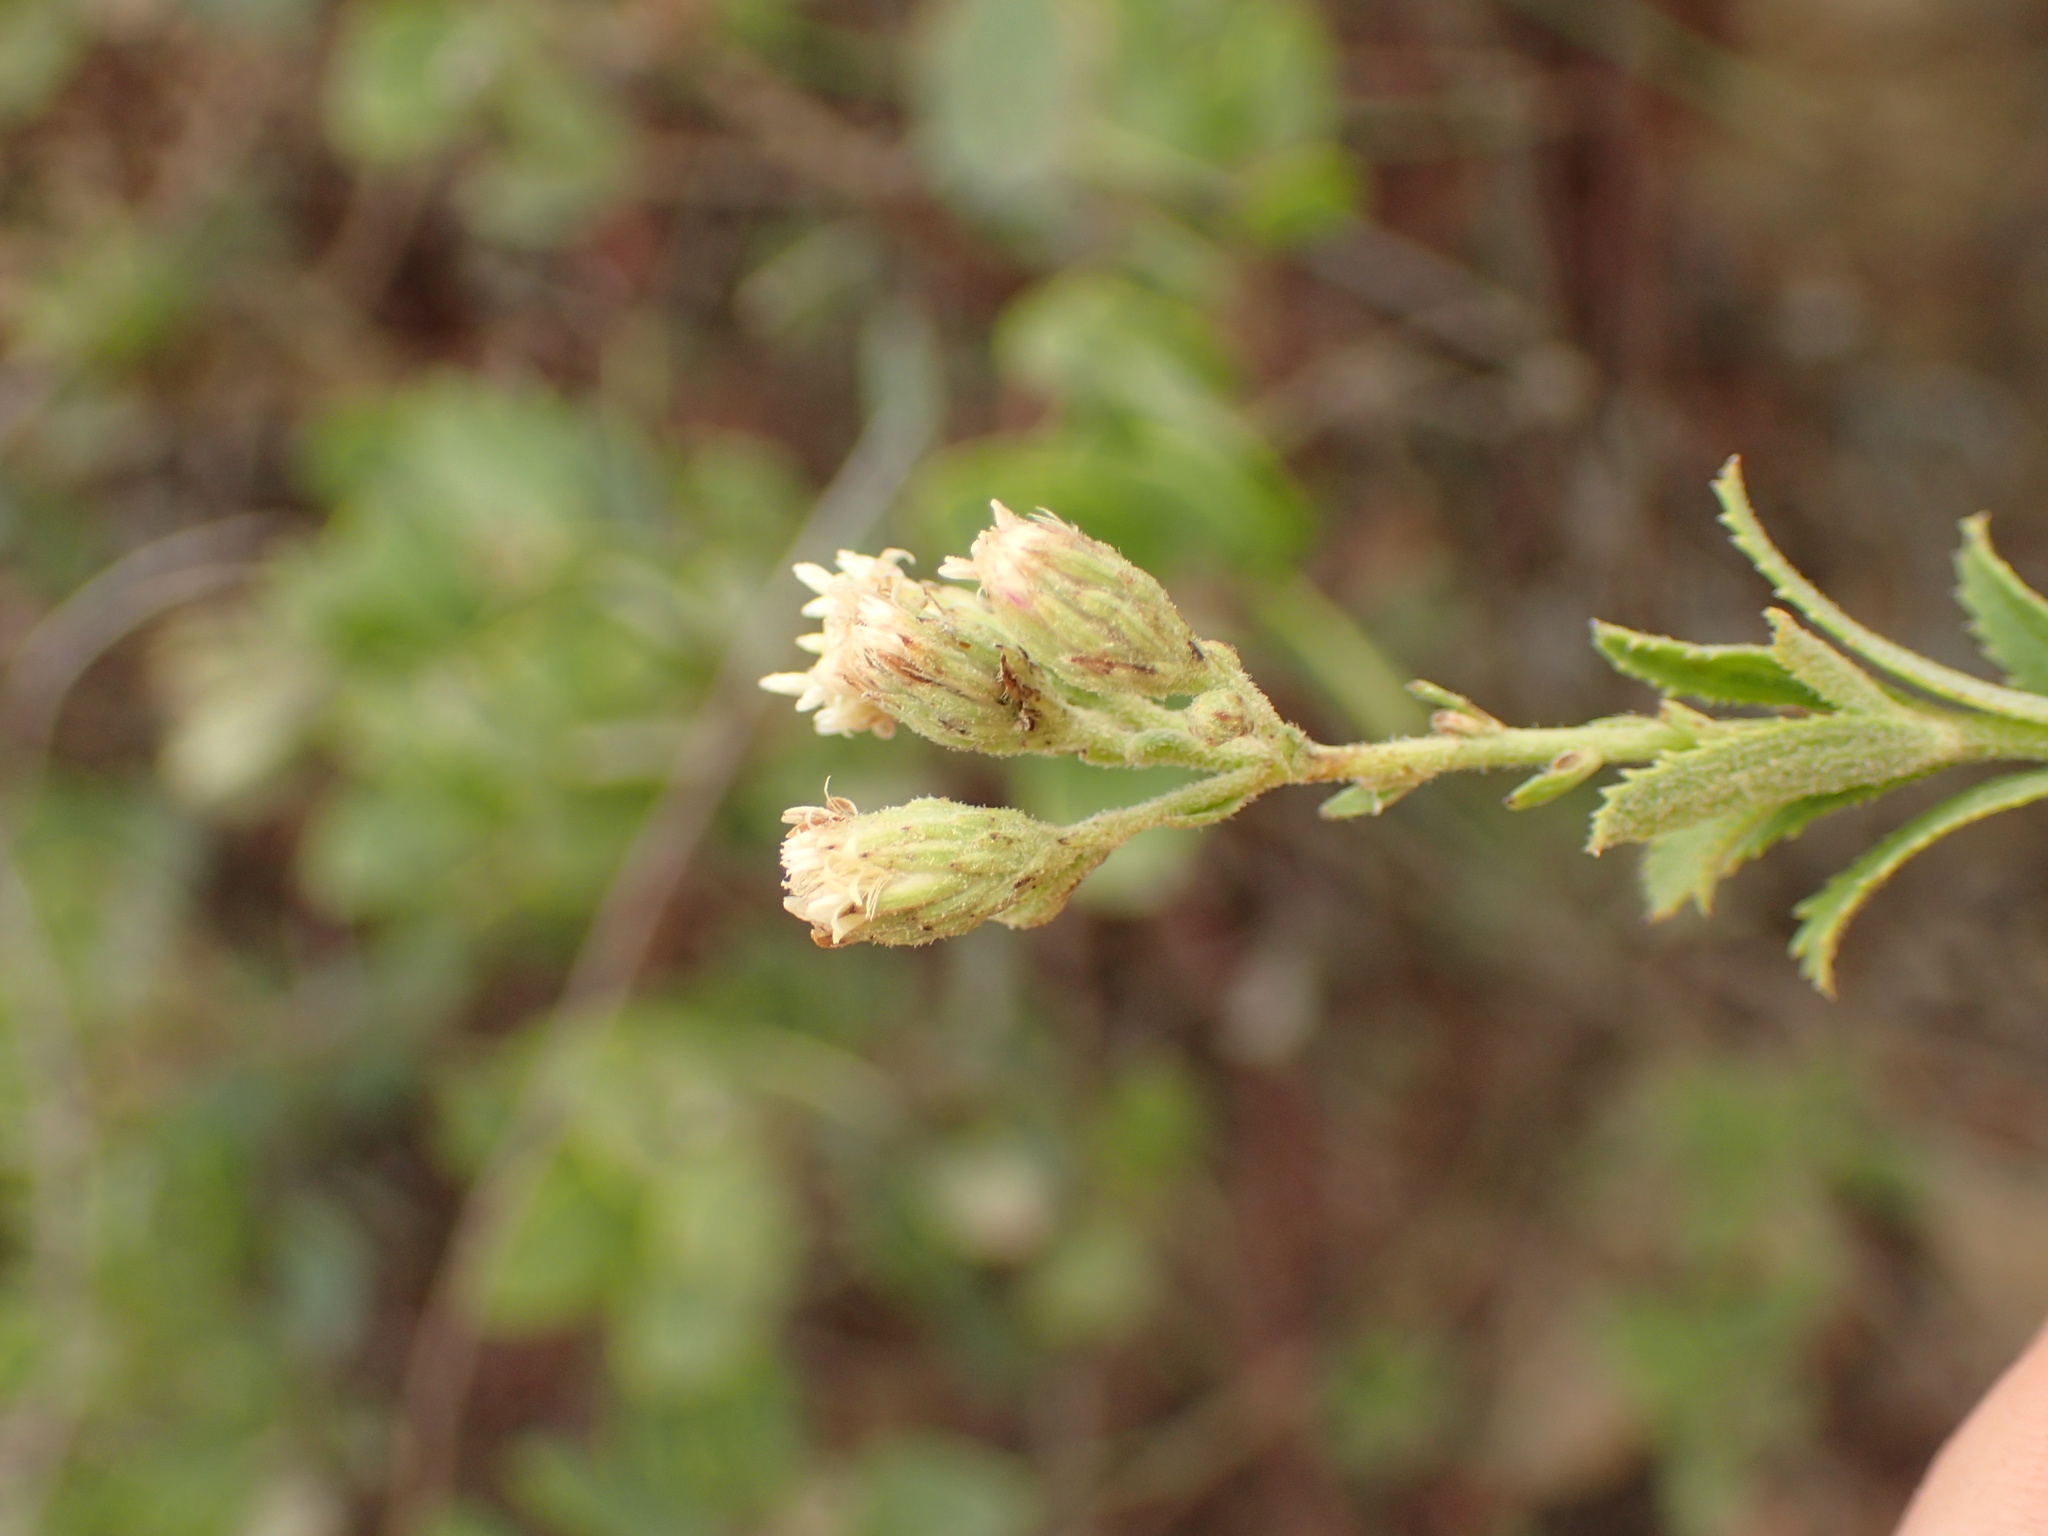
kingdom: Plantae
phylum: Tracheophyta
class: Magnoliopsida
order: Asterales
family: Asteraceae
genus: Baccharis
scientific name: Baccharis plummerae
